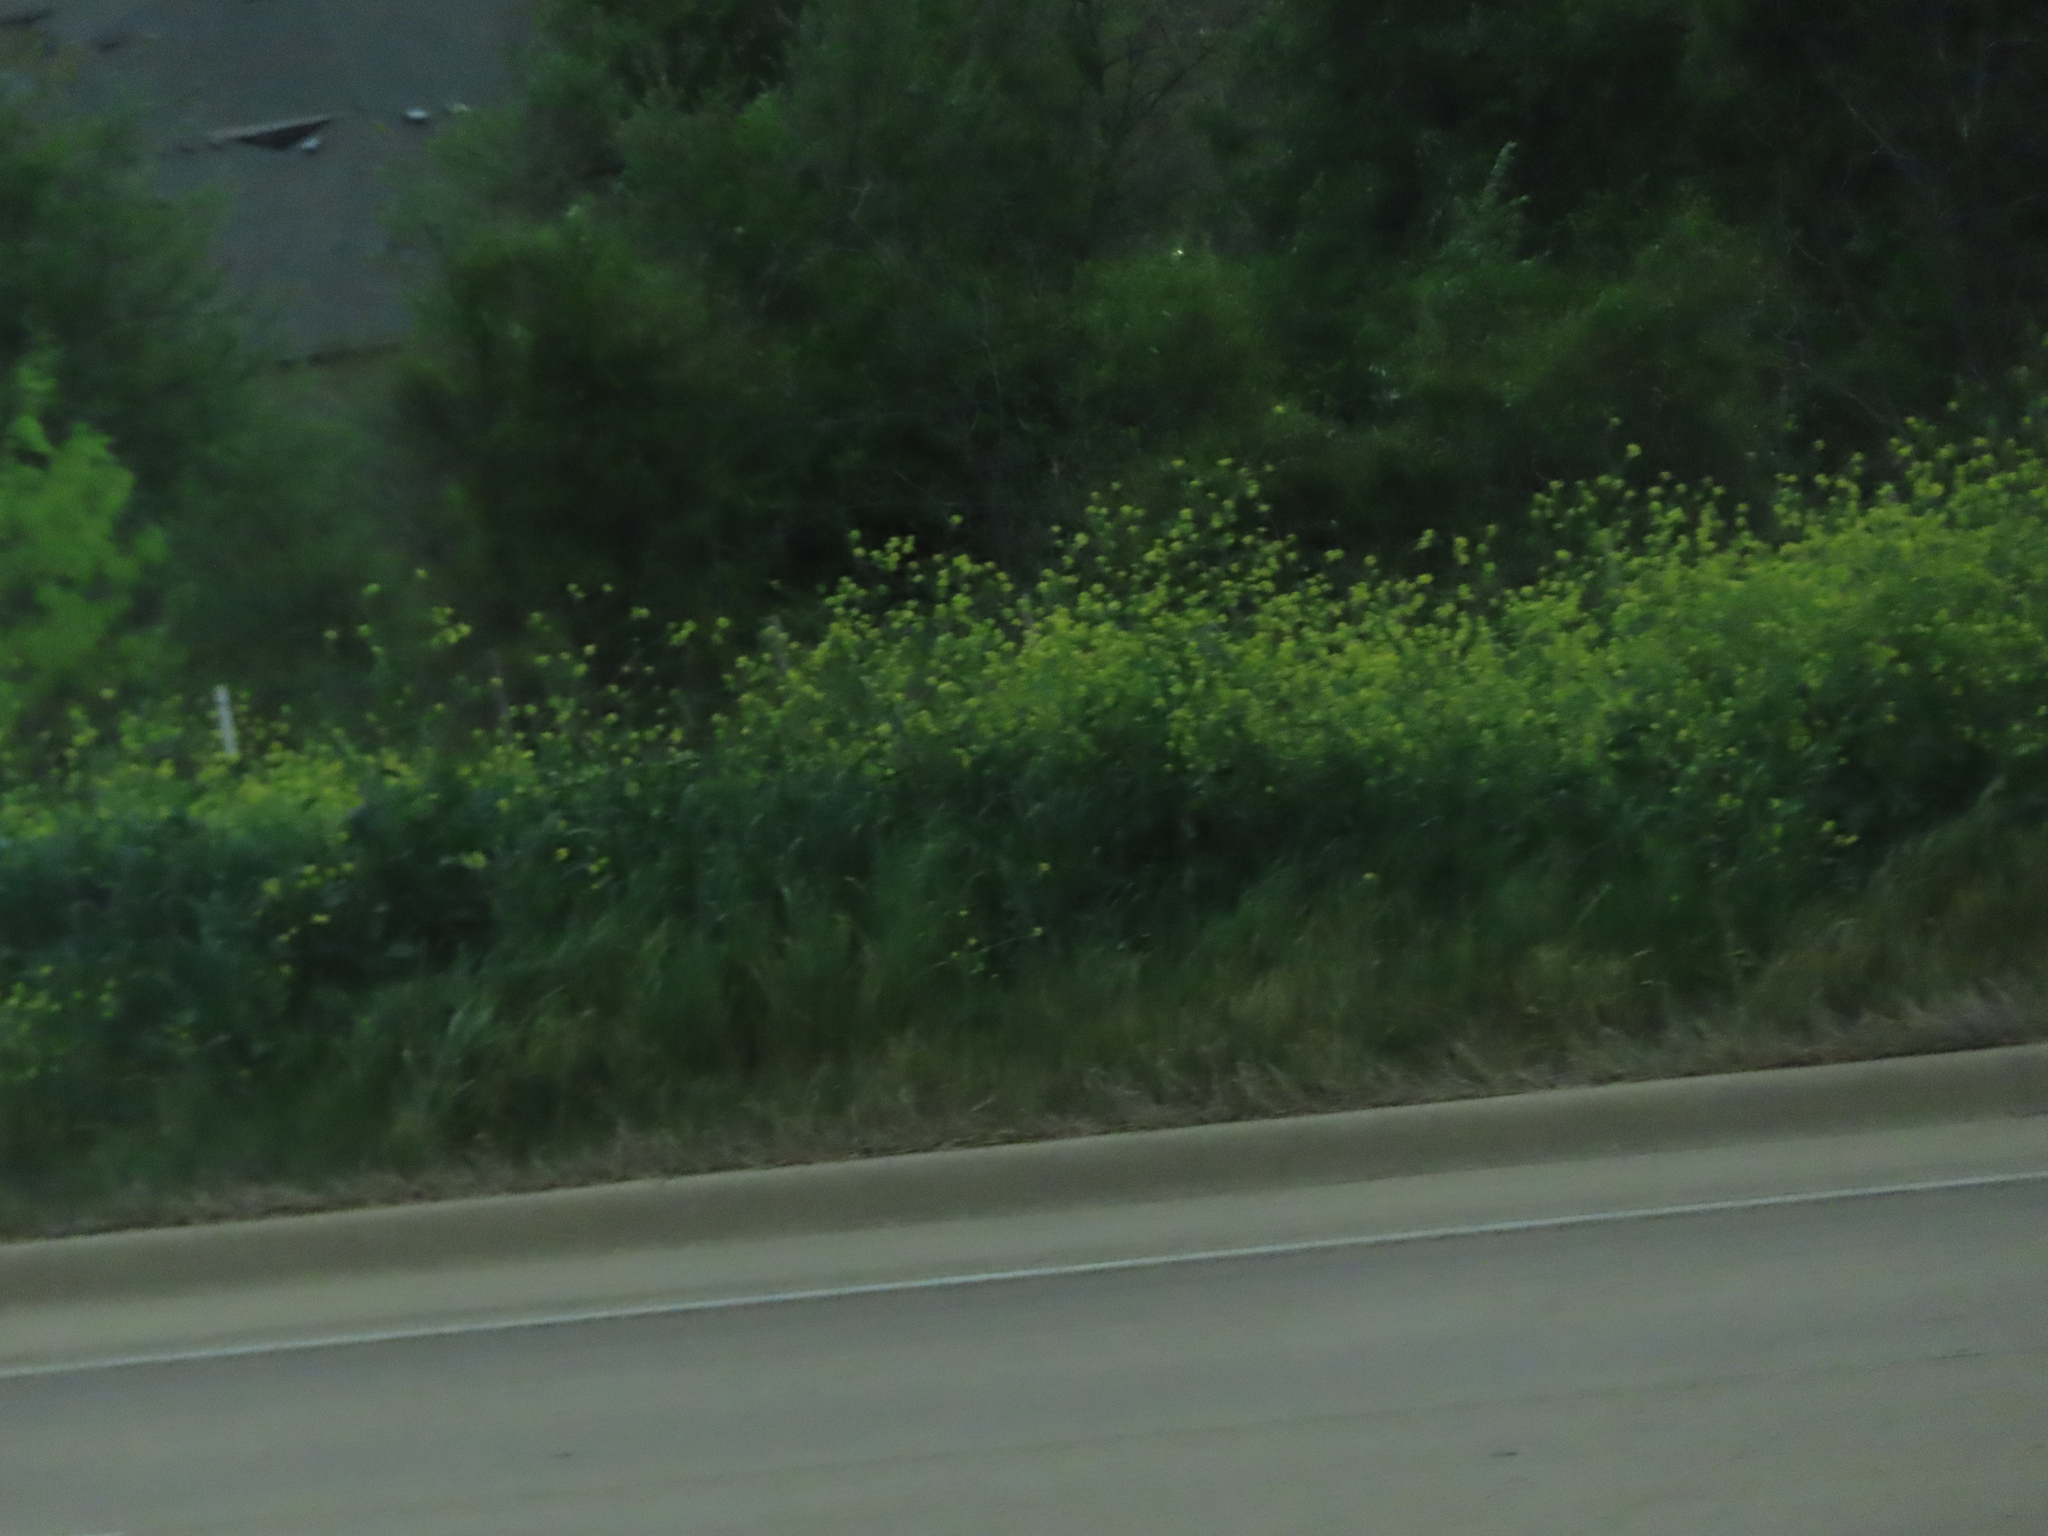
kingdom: Plantae
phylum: Tracheophyta
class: Magnoliopsida
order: Brassicales
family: Brassicaceae
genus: Rapistrum
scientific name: Rapistrum rugosum
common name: Annual bastardcabbage
